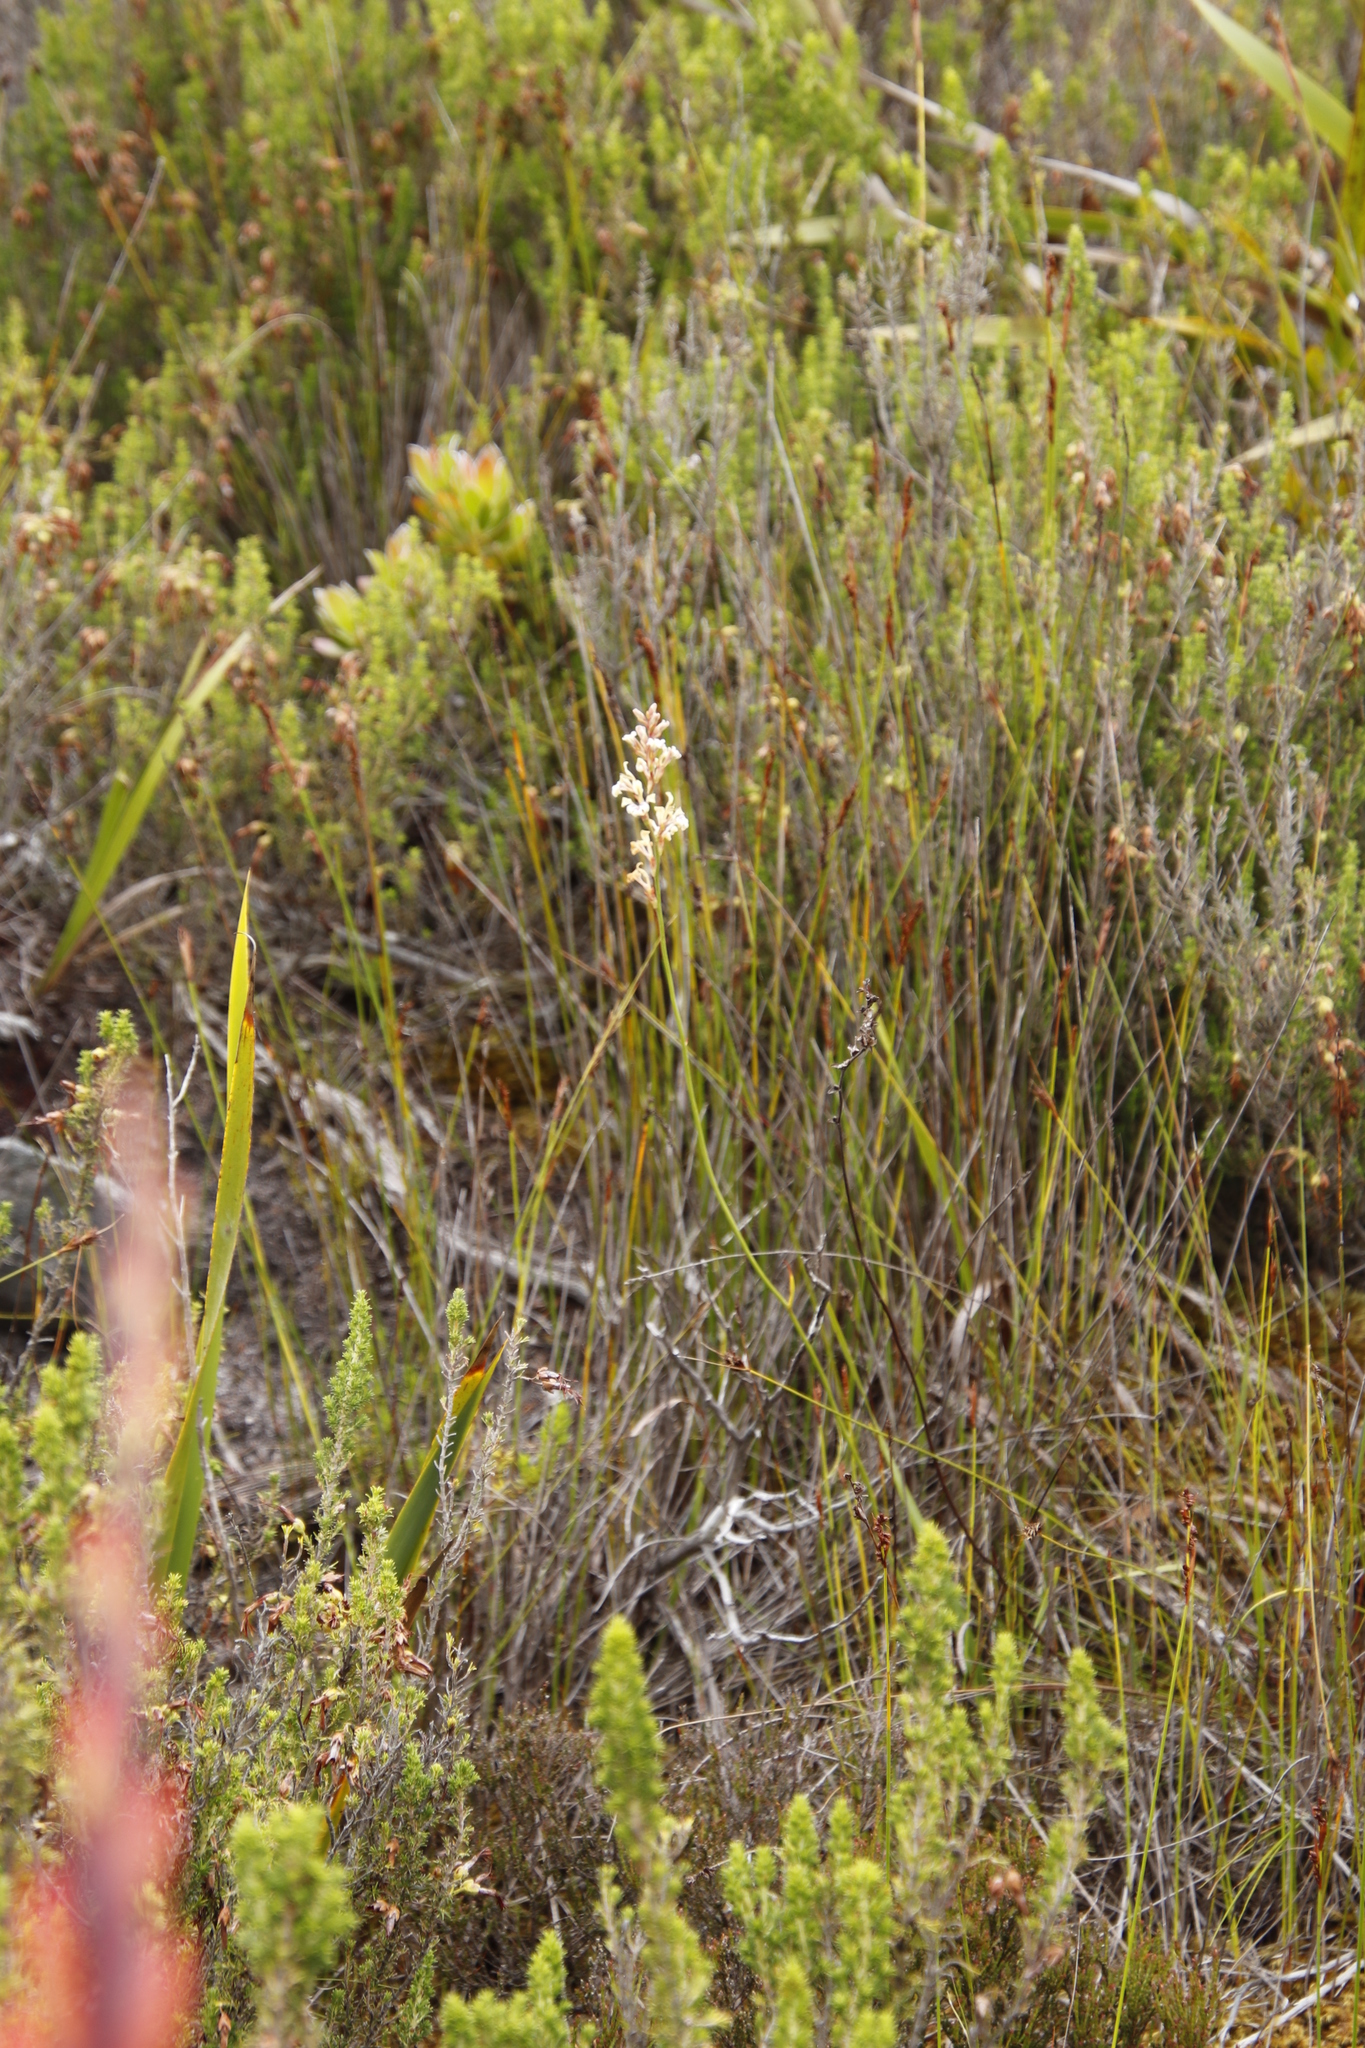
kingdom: Plantae
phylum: Tracheophyta
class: Liliopsida
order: Asparagales
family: Iridaceae
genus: Tritoniopsis
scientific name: Tritoniopsis unguicularis
